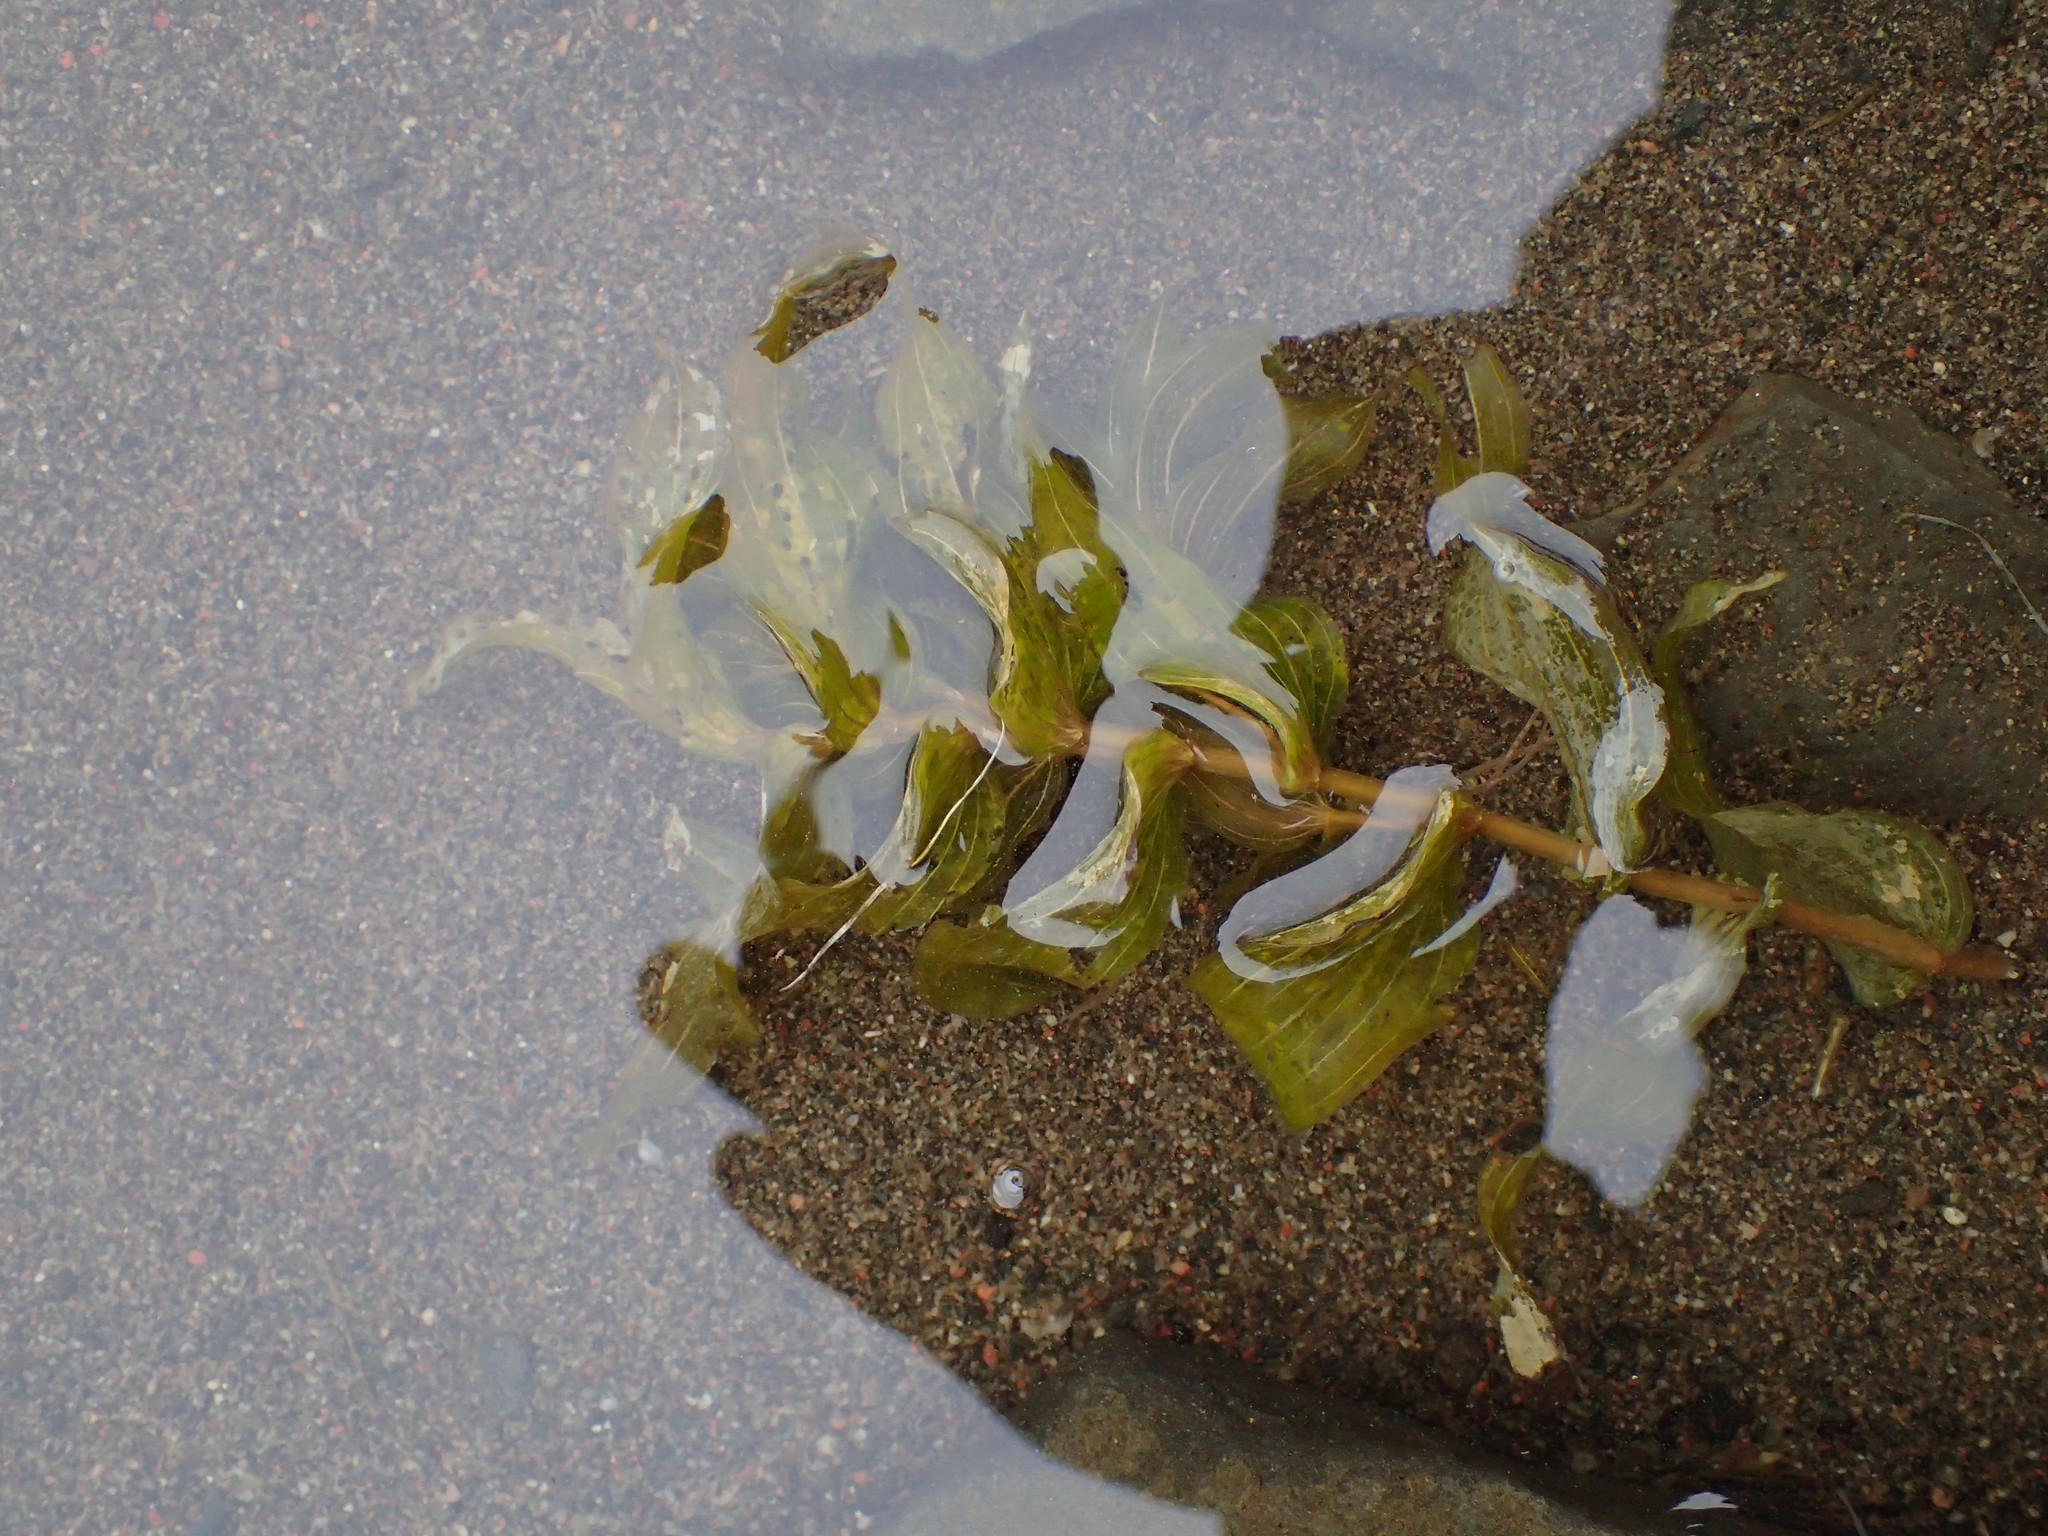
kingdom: Plantae
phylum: Tracheophyta
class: Liliopsida
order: Alismatales
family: Potamogetonaceae
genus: Potamogeton
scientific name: Potamogeton richardsonii
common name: Richardson's pondweed
